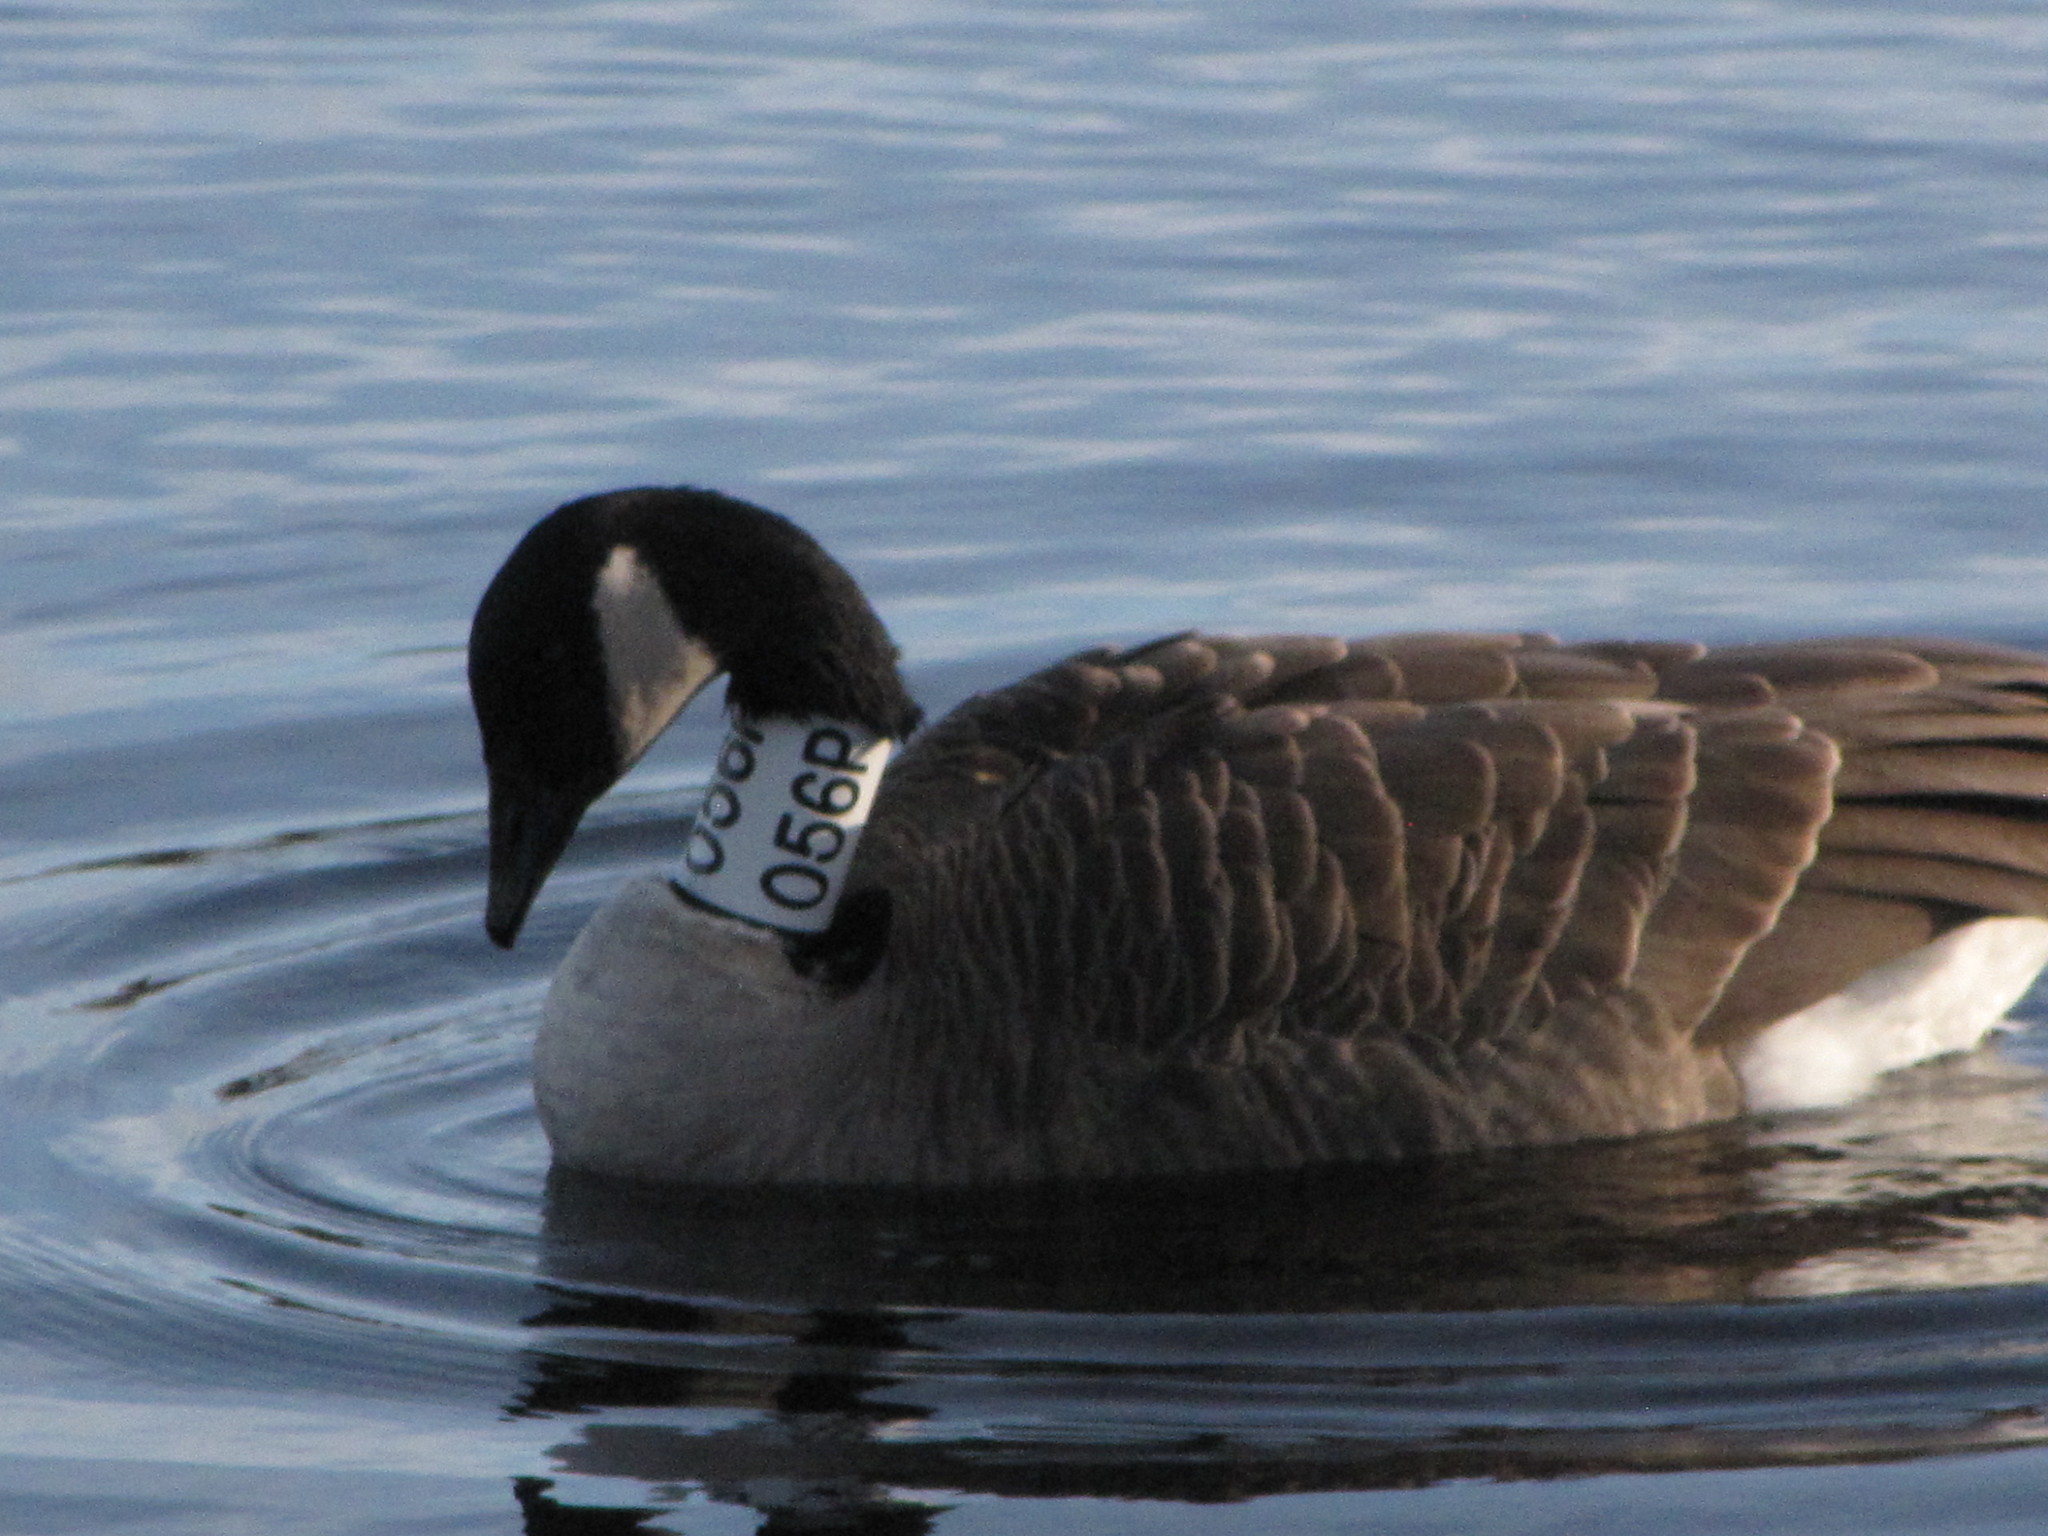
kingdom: Animalia
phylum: Chordata
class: Aves
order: Anseriformes
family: Anatidae
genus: Branta
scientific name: Branta canadensis
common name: Canada goose
